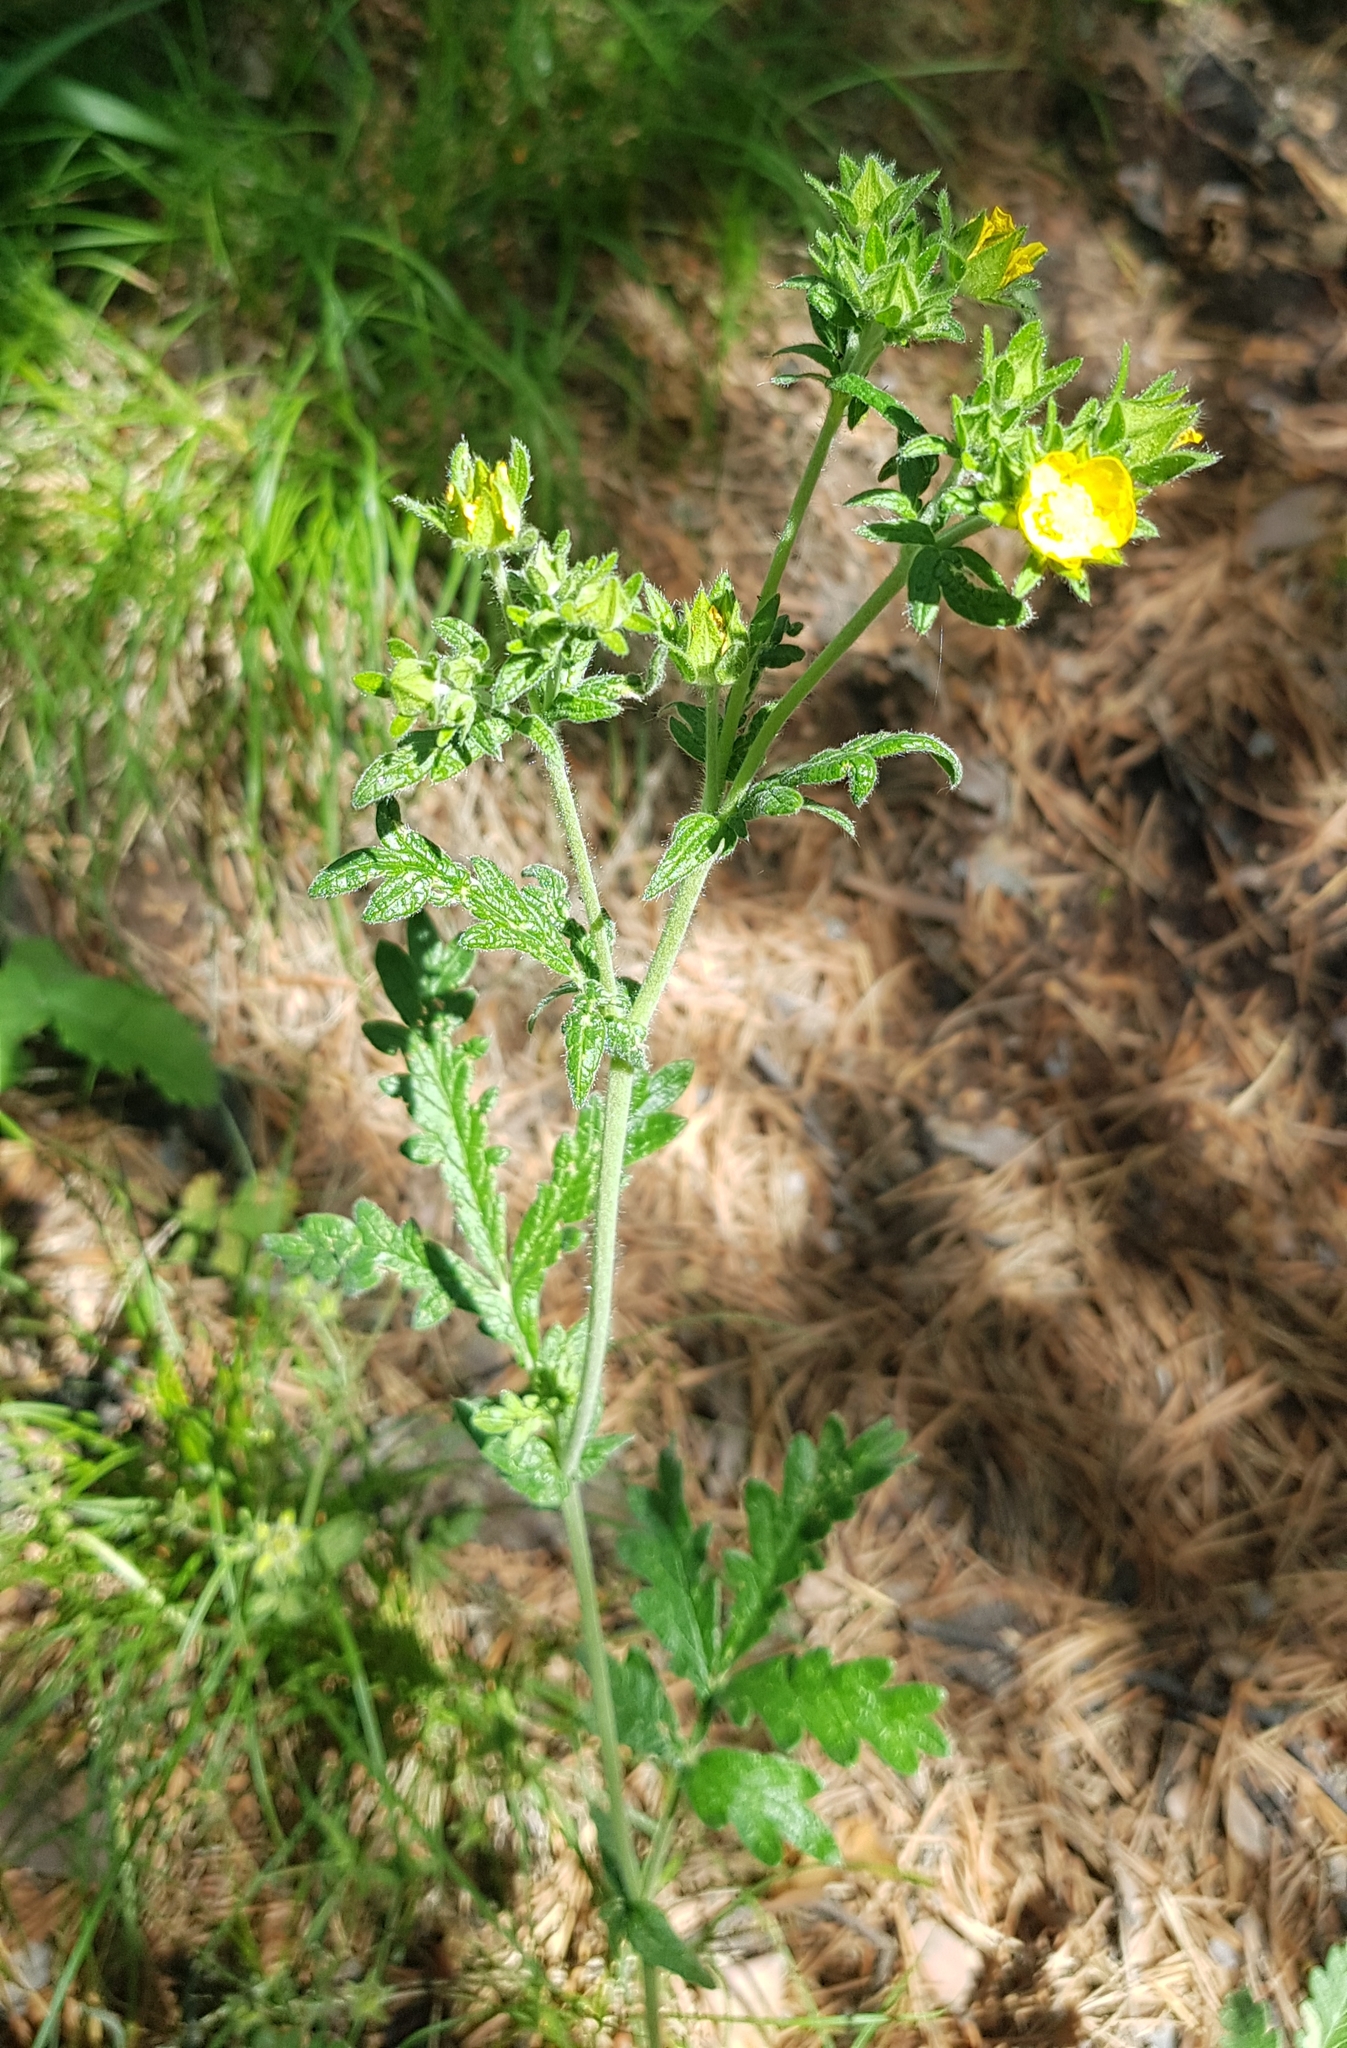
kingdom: Plantae
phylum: Tracheophyta
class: Magnoliopsida
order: Rosales
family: Rosaceae
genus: Potentilla
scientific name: Potentilla pensylvanica
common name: Pennsylvania cinquefoil
